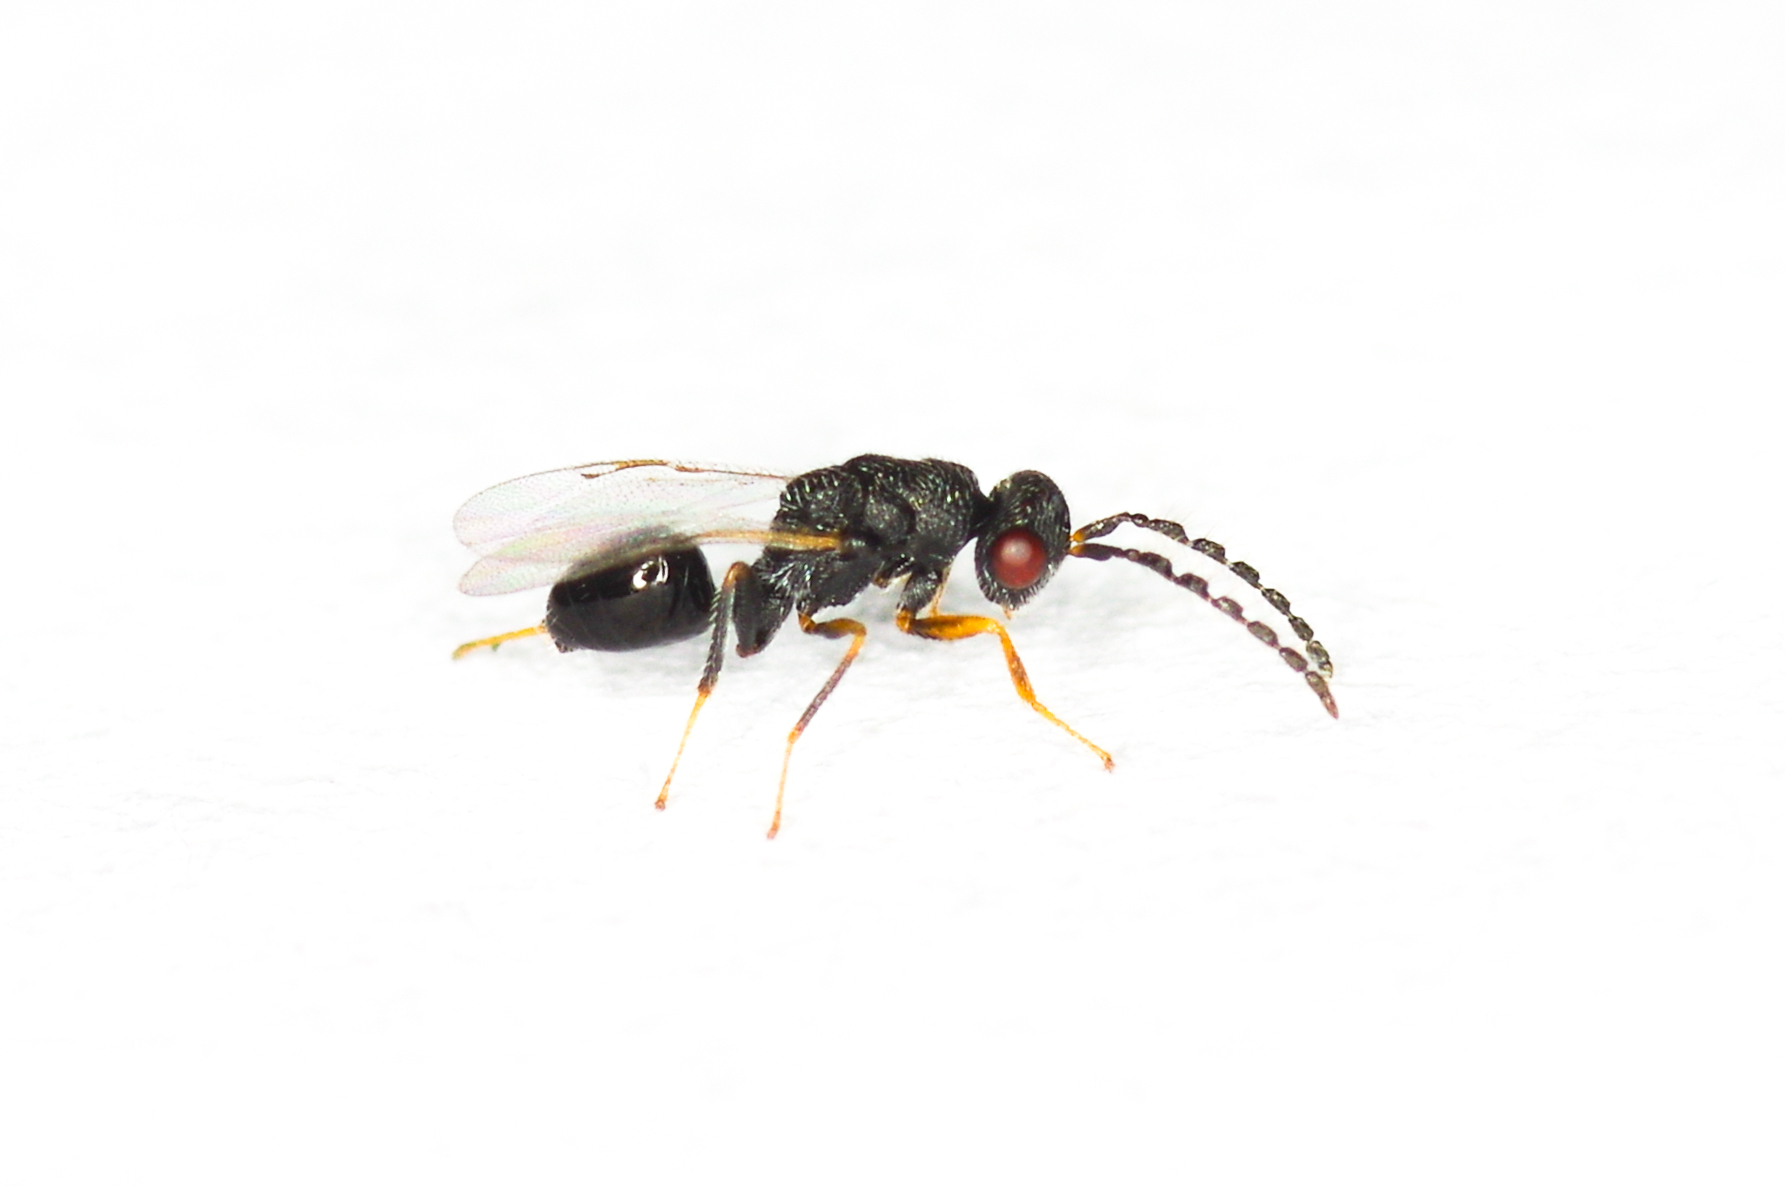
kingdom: Animalia
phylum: Arthropoda
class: Insecta
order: Hymenoptera
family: Eurytomidae
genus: Eurytoma
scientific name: Eurytoma diastrophi
